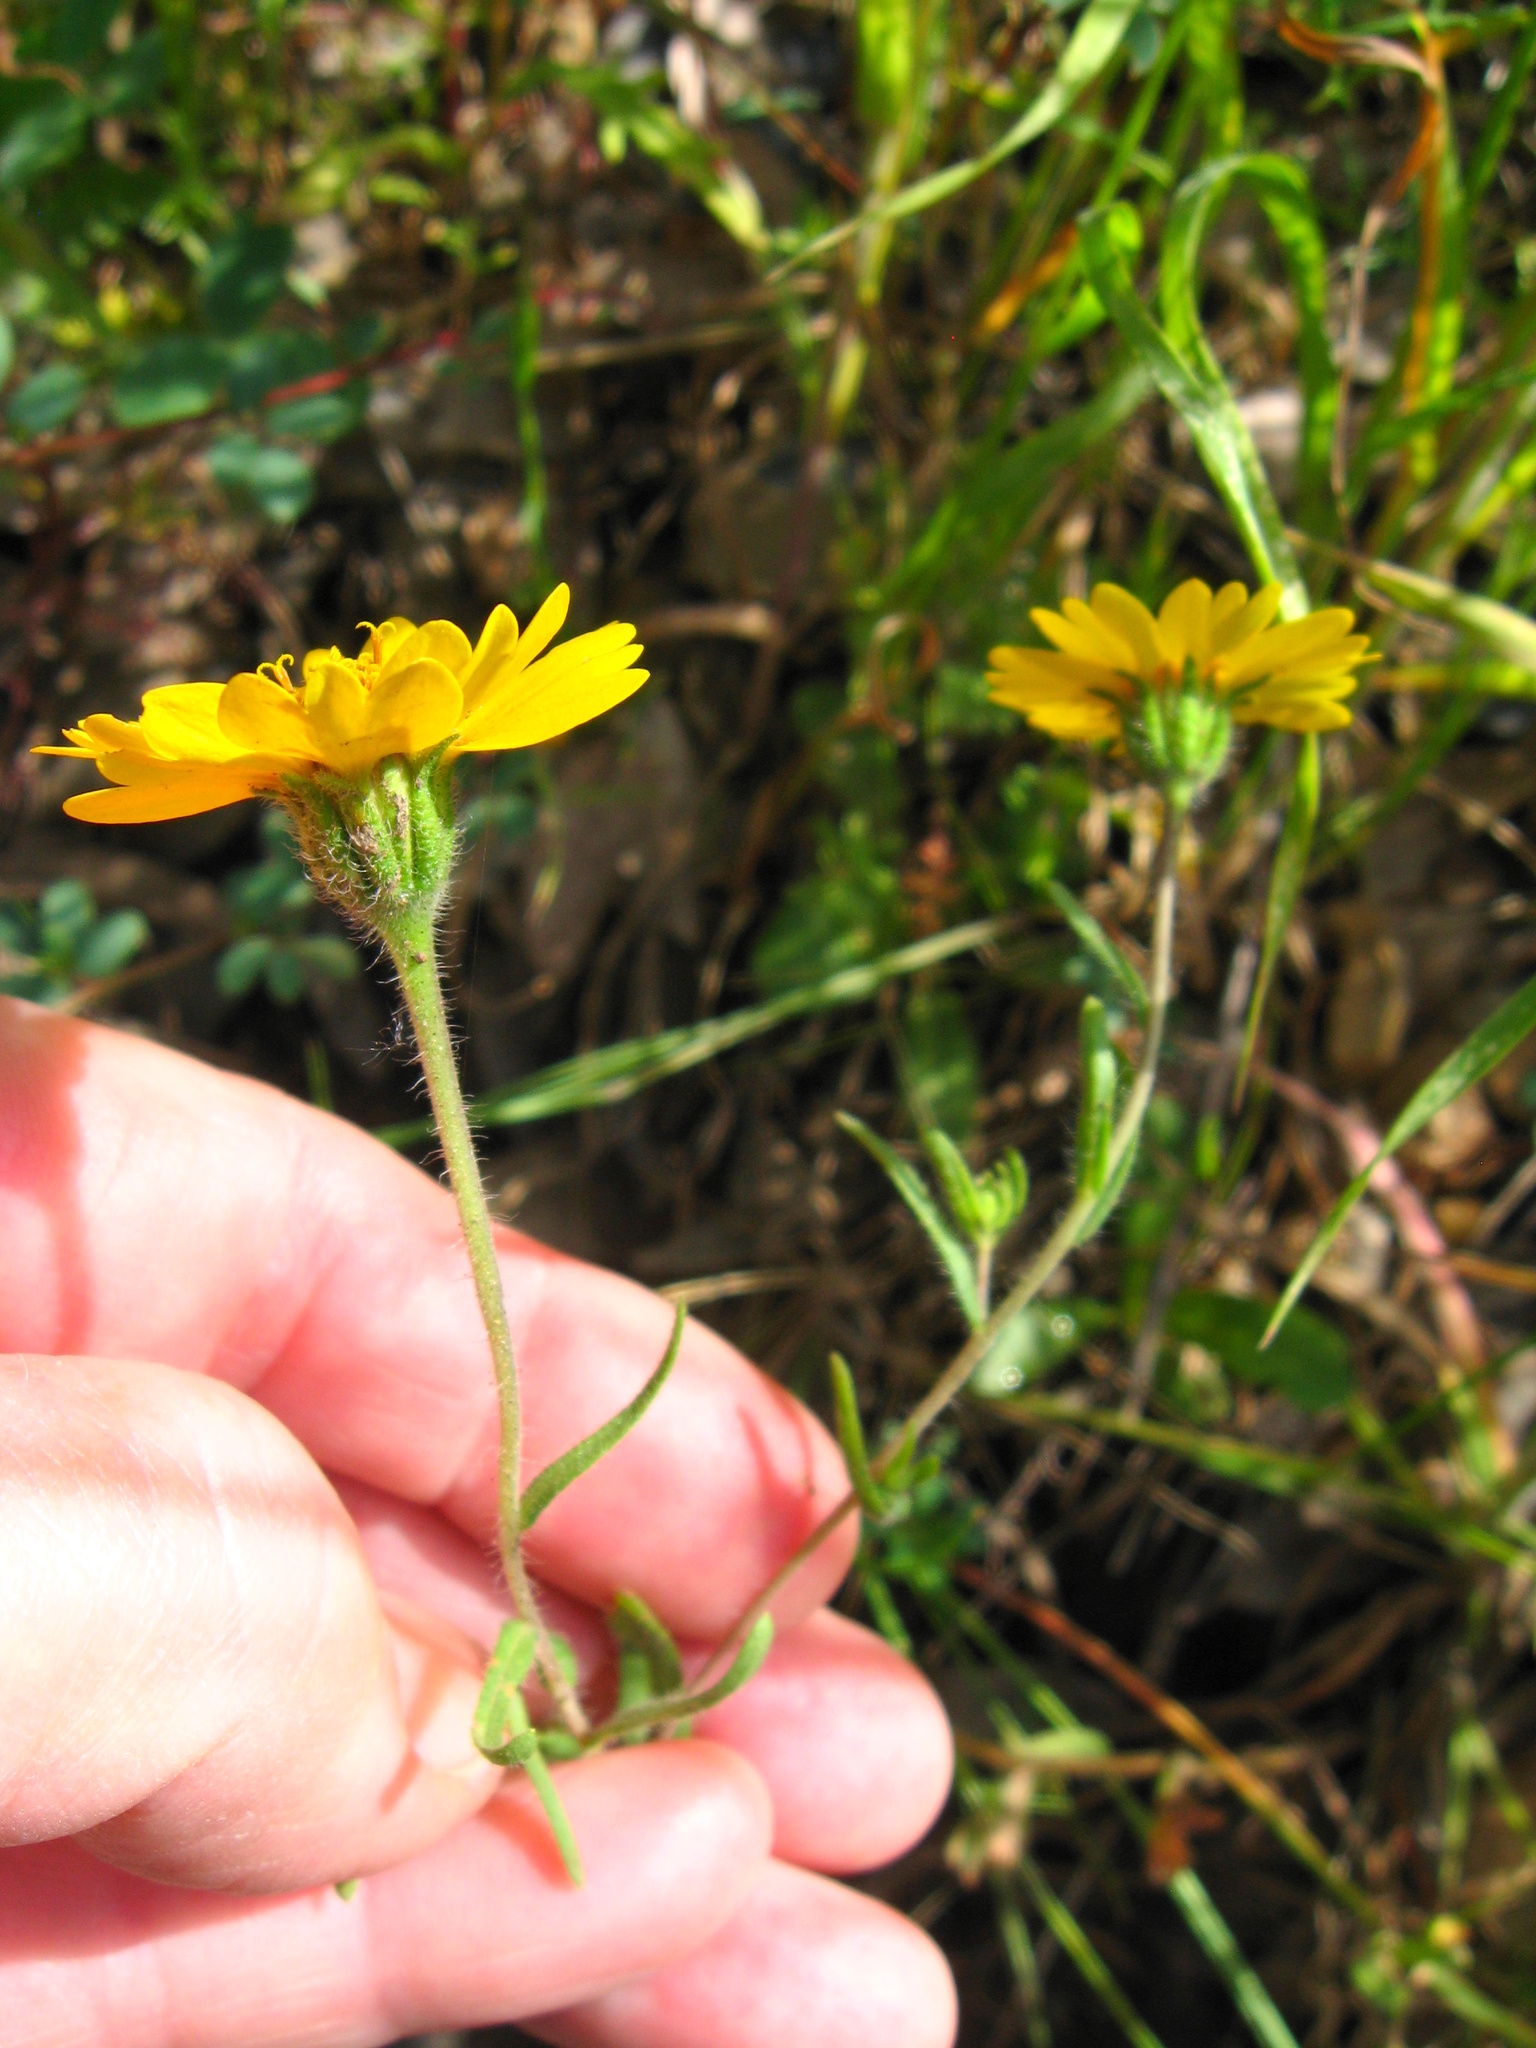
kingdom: Plantae
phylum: Tracheophyta
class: Magnoliopsida
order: Asterales
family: Asteraceae
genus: Layia
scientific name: Layia pentachaeta
